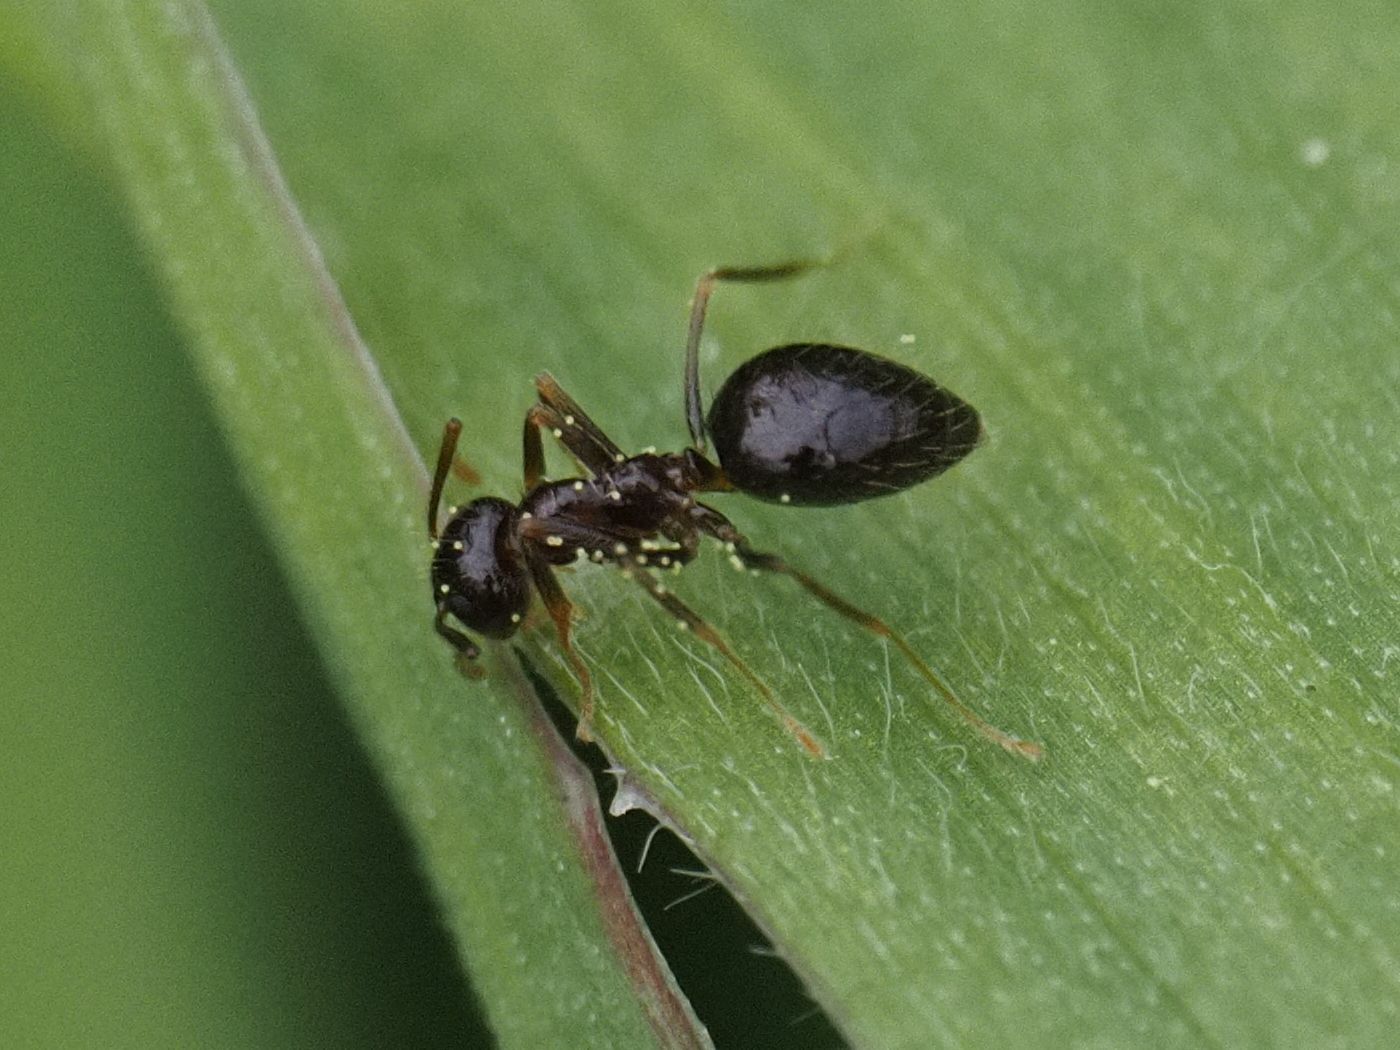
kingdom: Animalia
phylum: Arthropoda
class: Insecta
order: Hymenoptera
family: Formicidae
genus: Prenolepis
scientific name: Prenolepis nitens
